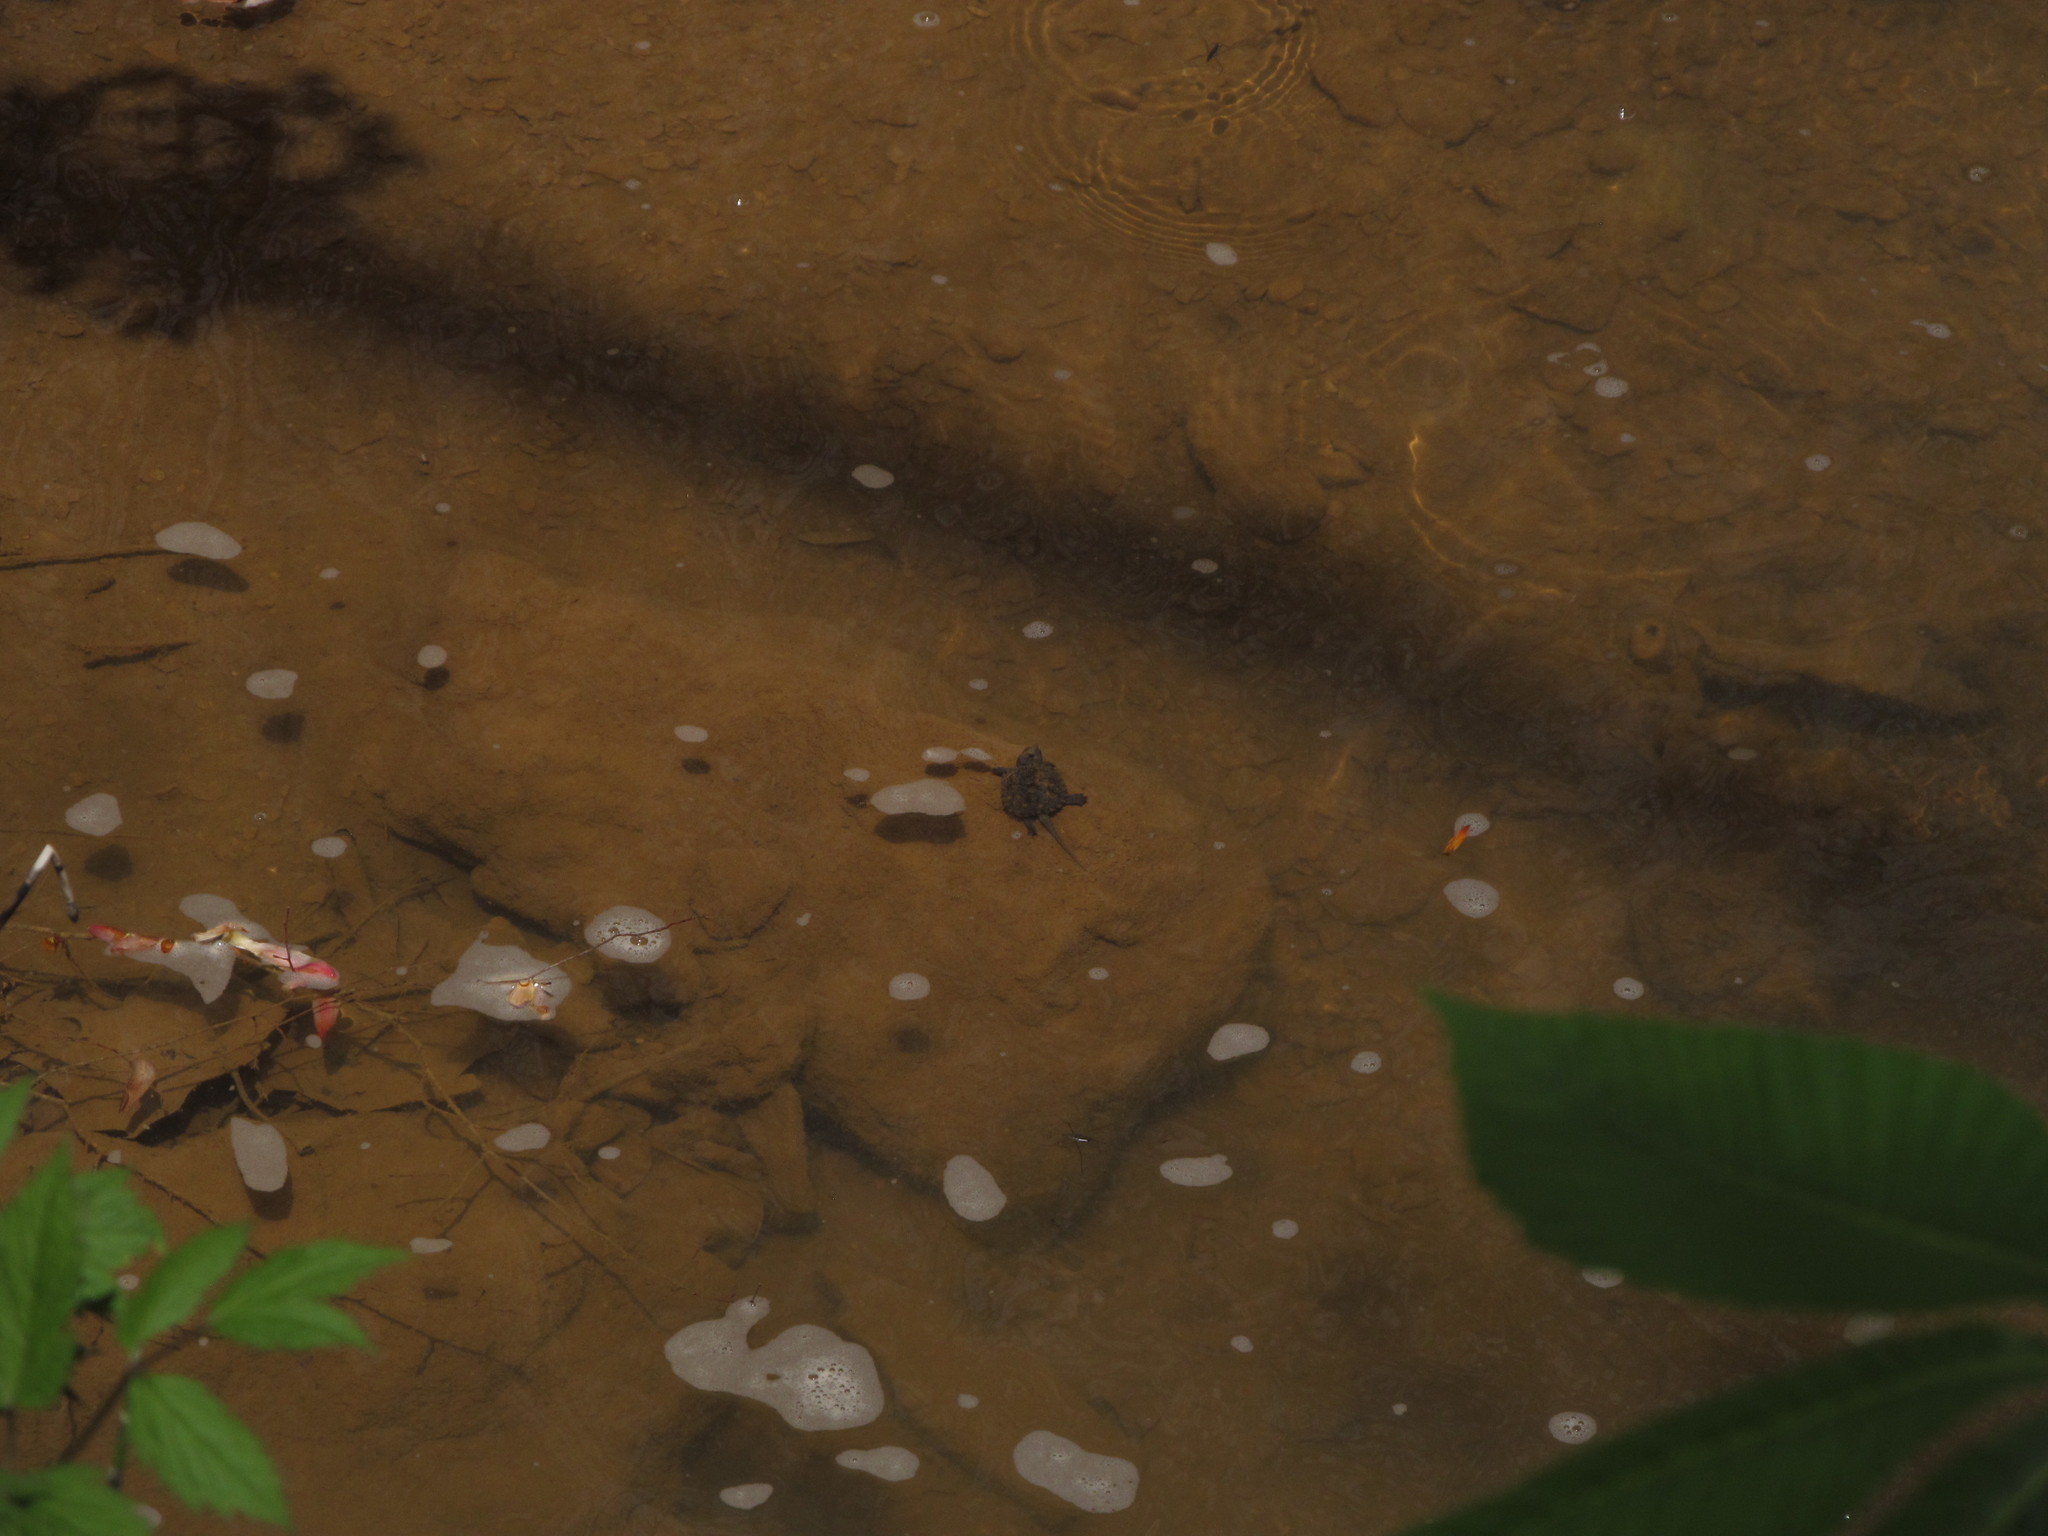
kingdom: Animalia
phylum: Chordata
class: Testudines
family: Chelydridae
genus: Chelydra
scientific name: Chelydra serpentina
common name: Common snapping turtle
